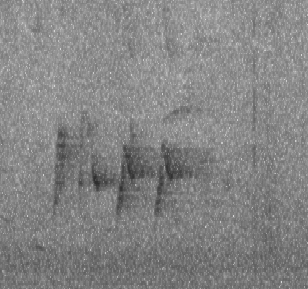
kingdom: Animalia
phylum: Chordata
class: Aves
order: Passeriformes
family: Pycnonotidae
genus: Pycnonotus
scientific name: Pycnonotus sinensis
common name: Light-vented bulbul
